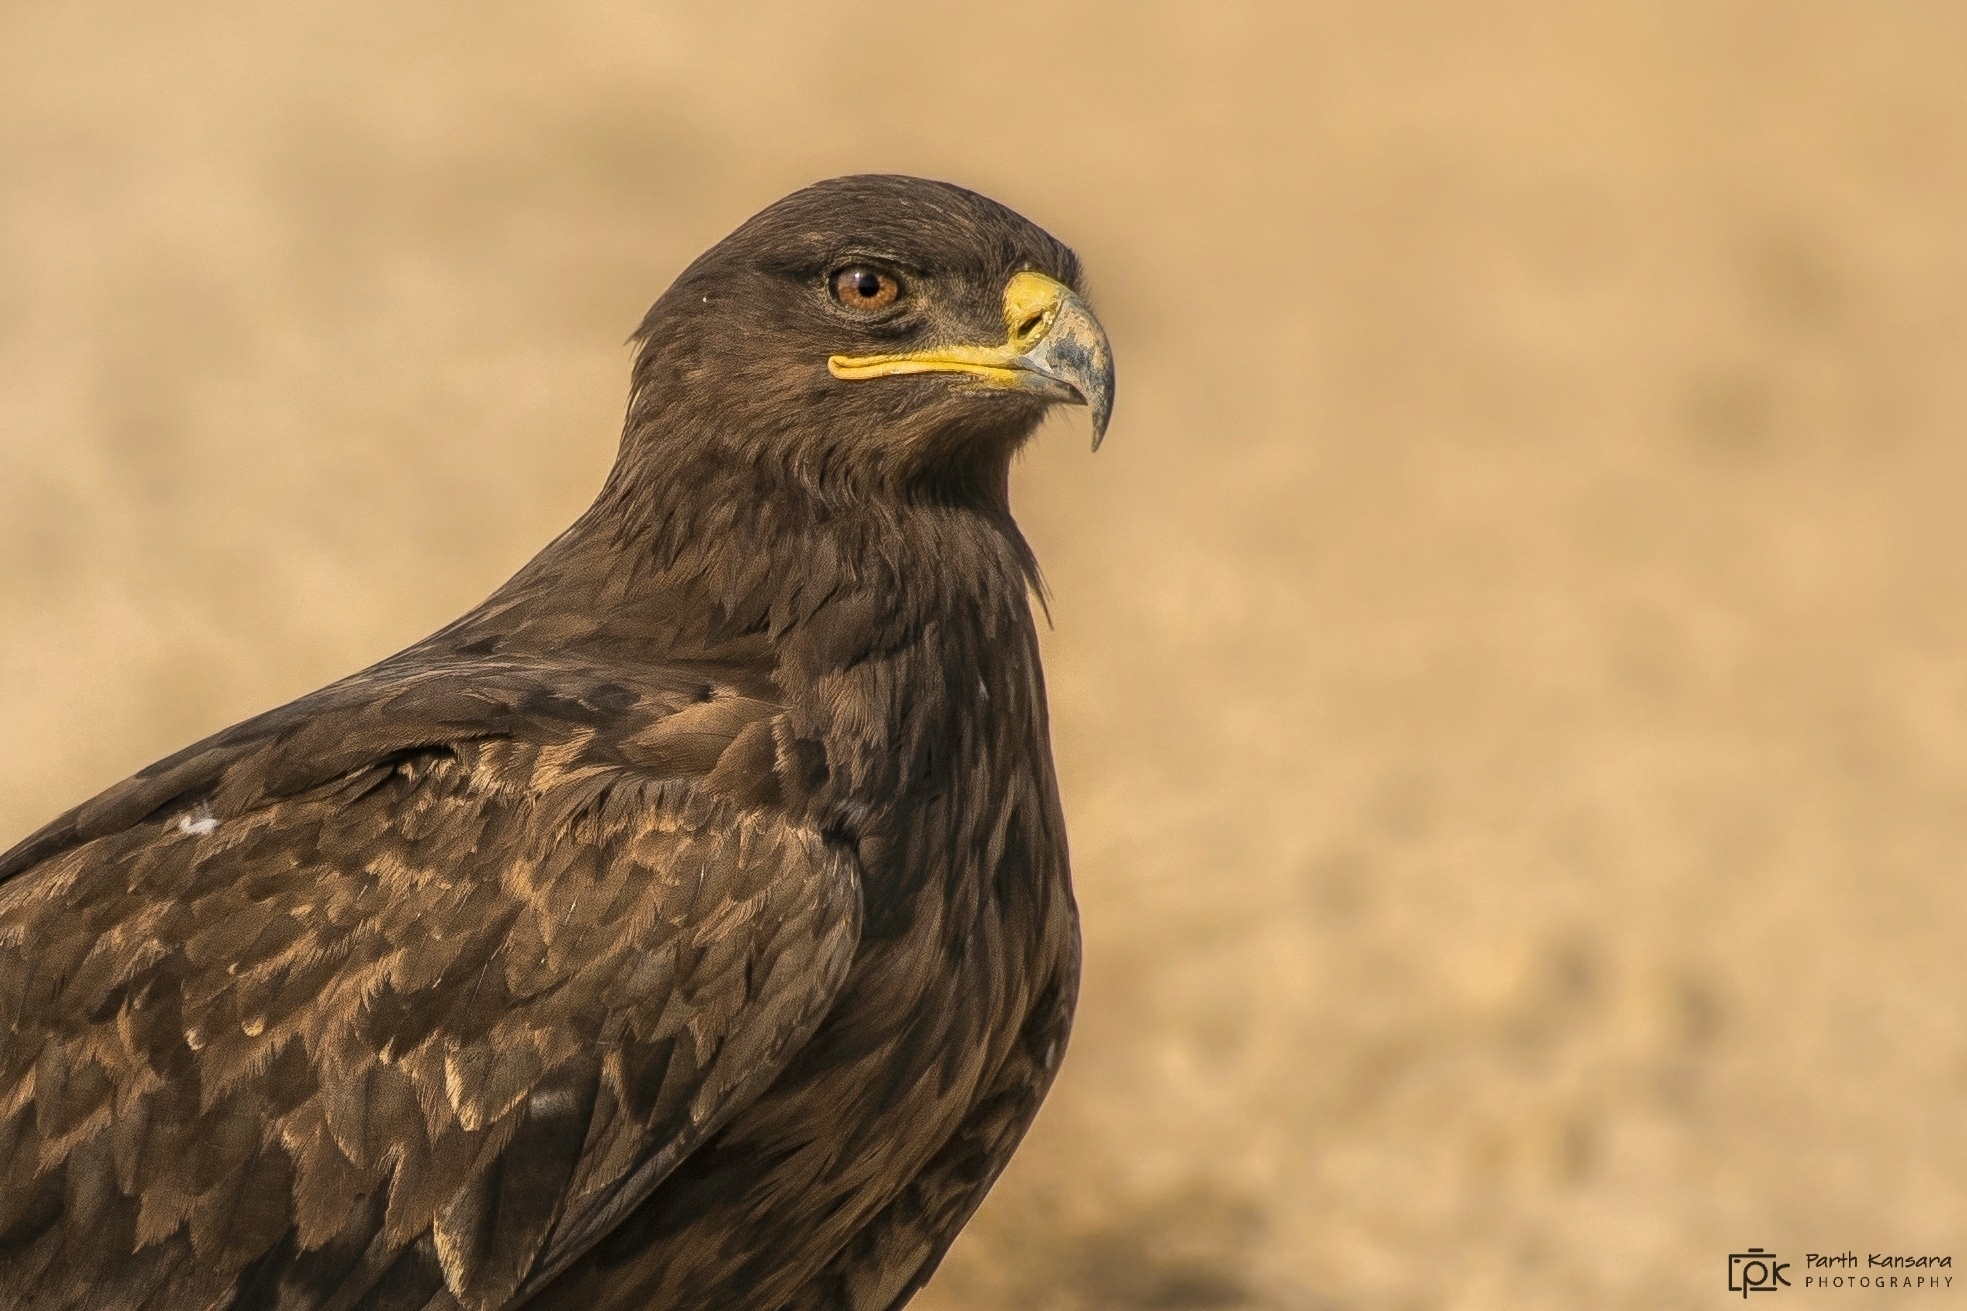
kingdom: Animalia
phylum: Chordata
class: Aves
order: Accipitriformes
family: Accipitridae
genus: Aquila
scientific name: Aquila nipalensis
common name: Steppe eagle
